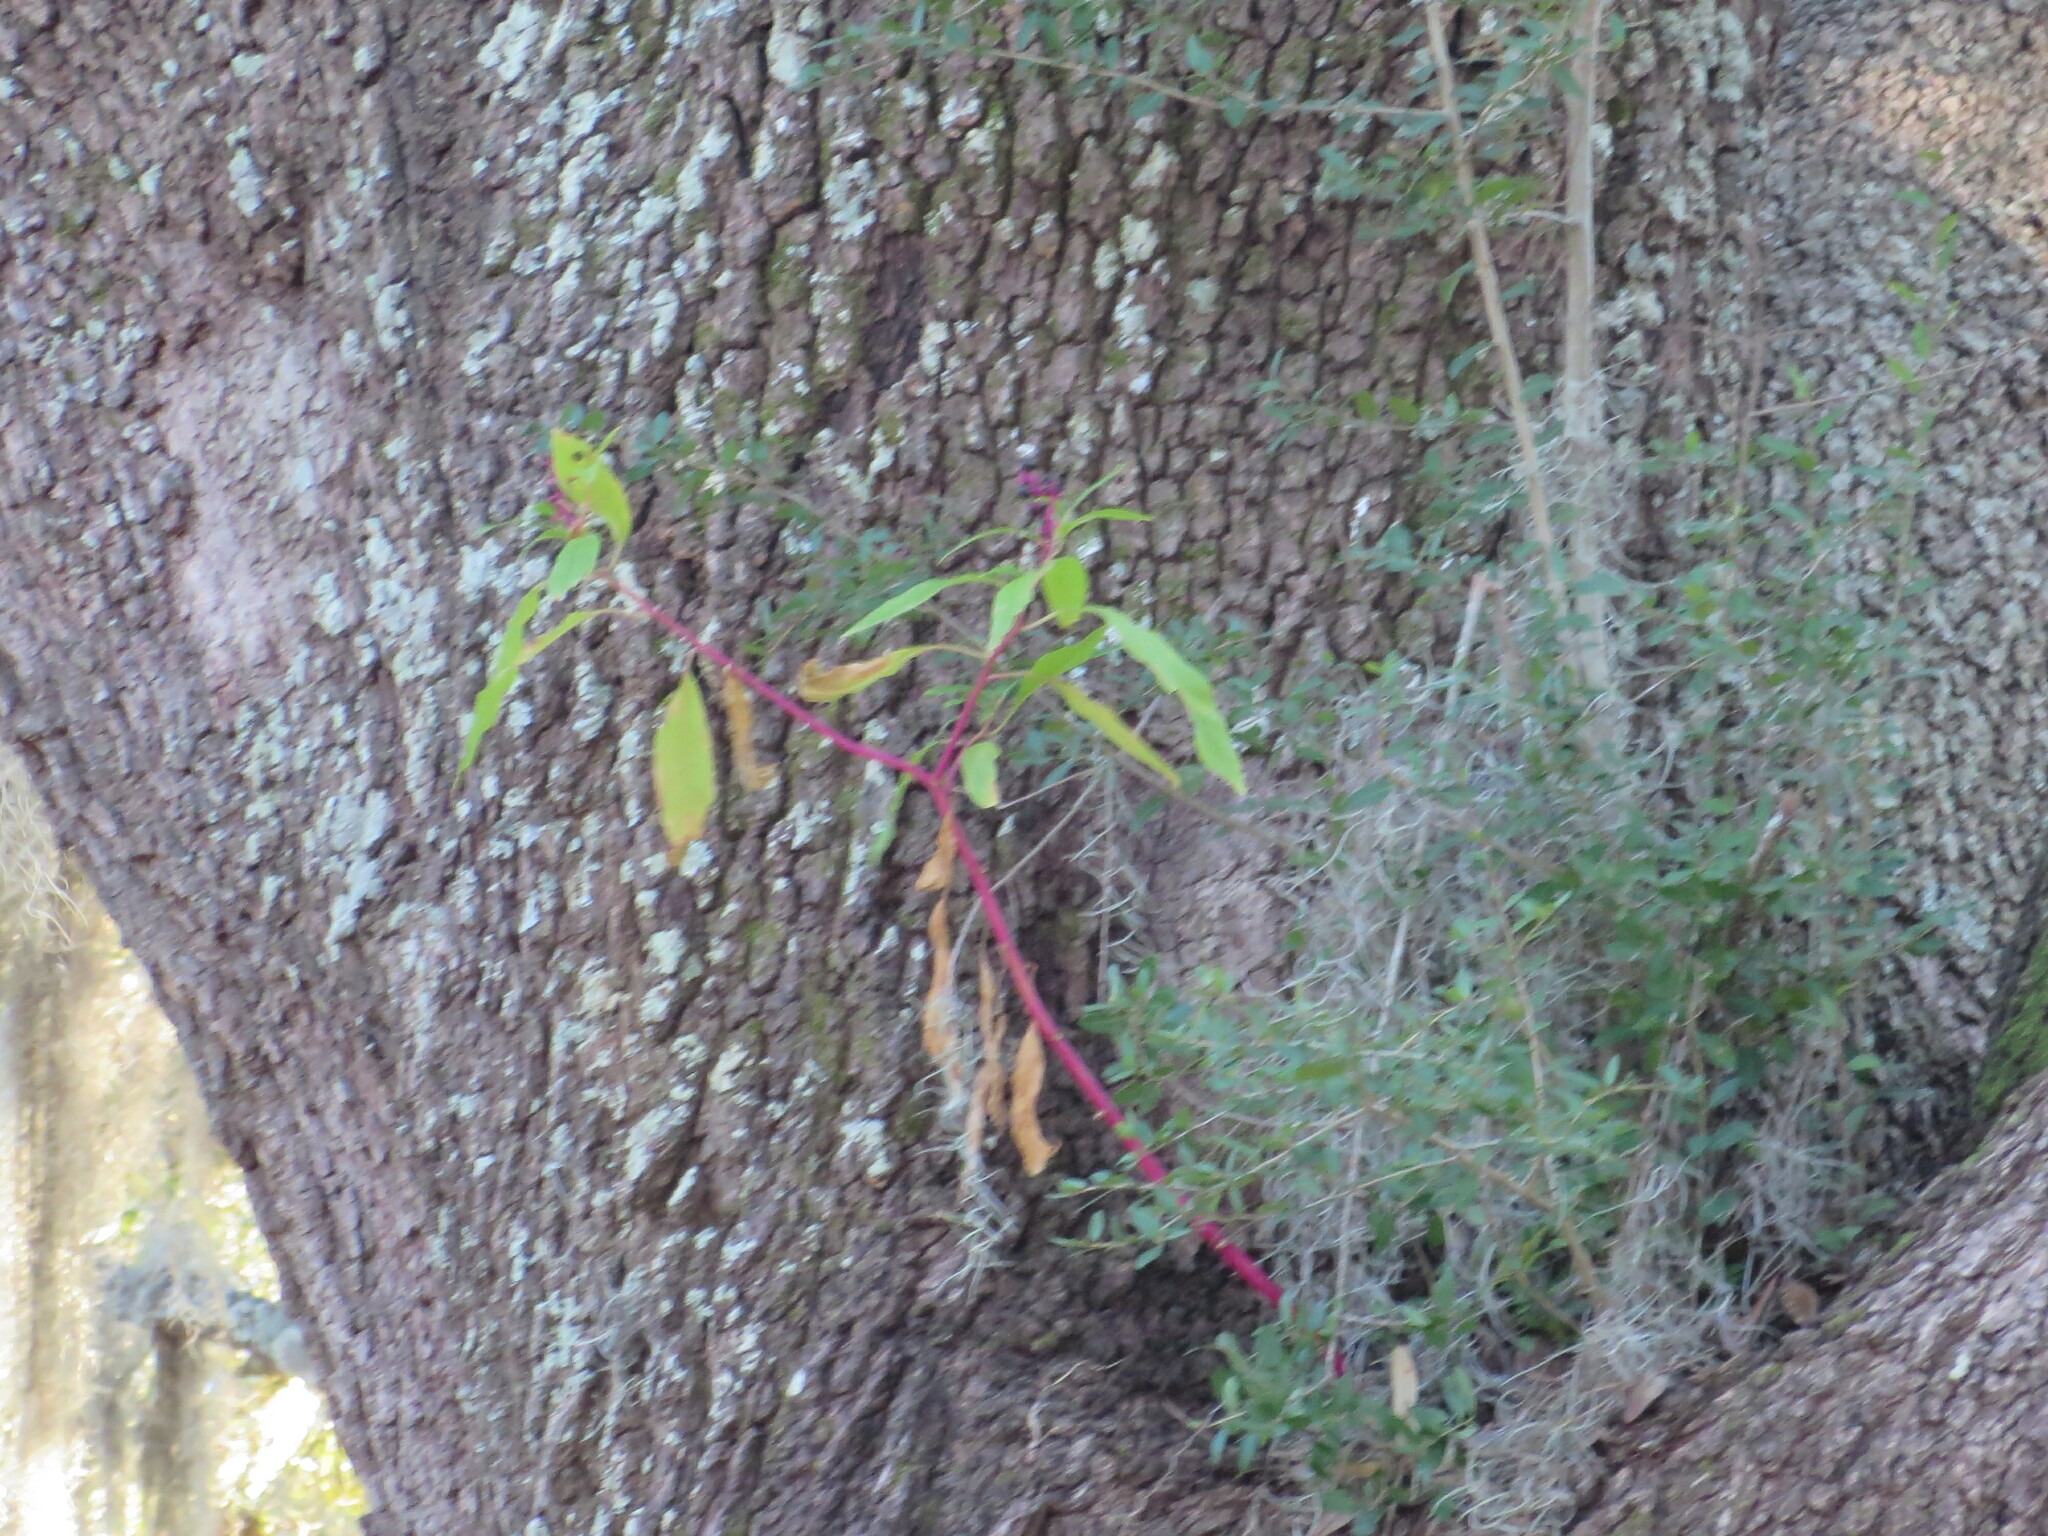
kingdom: Plantae
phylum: Tracheophyta
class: Magnoliopsida
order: Caryophyllales
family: Phytolaccaceae
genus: Phytolacca
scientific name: Phytolacca americana
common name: American pokeweed
